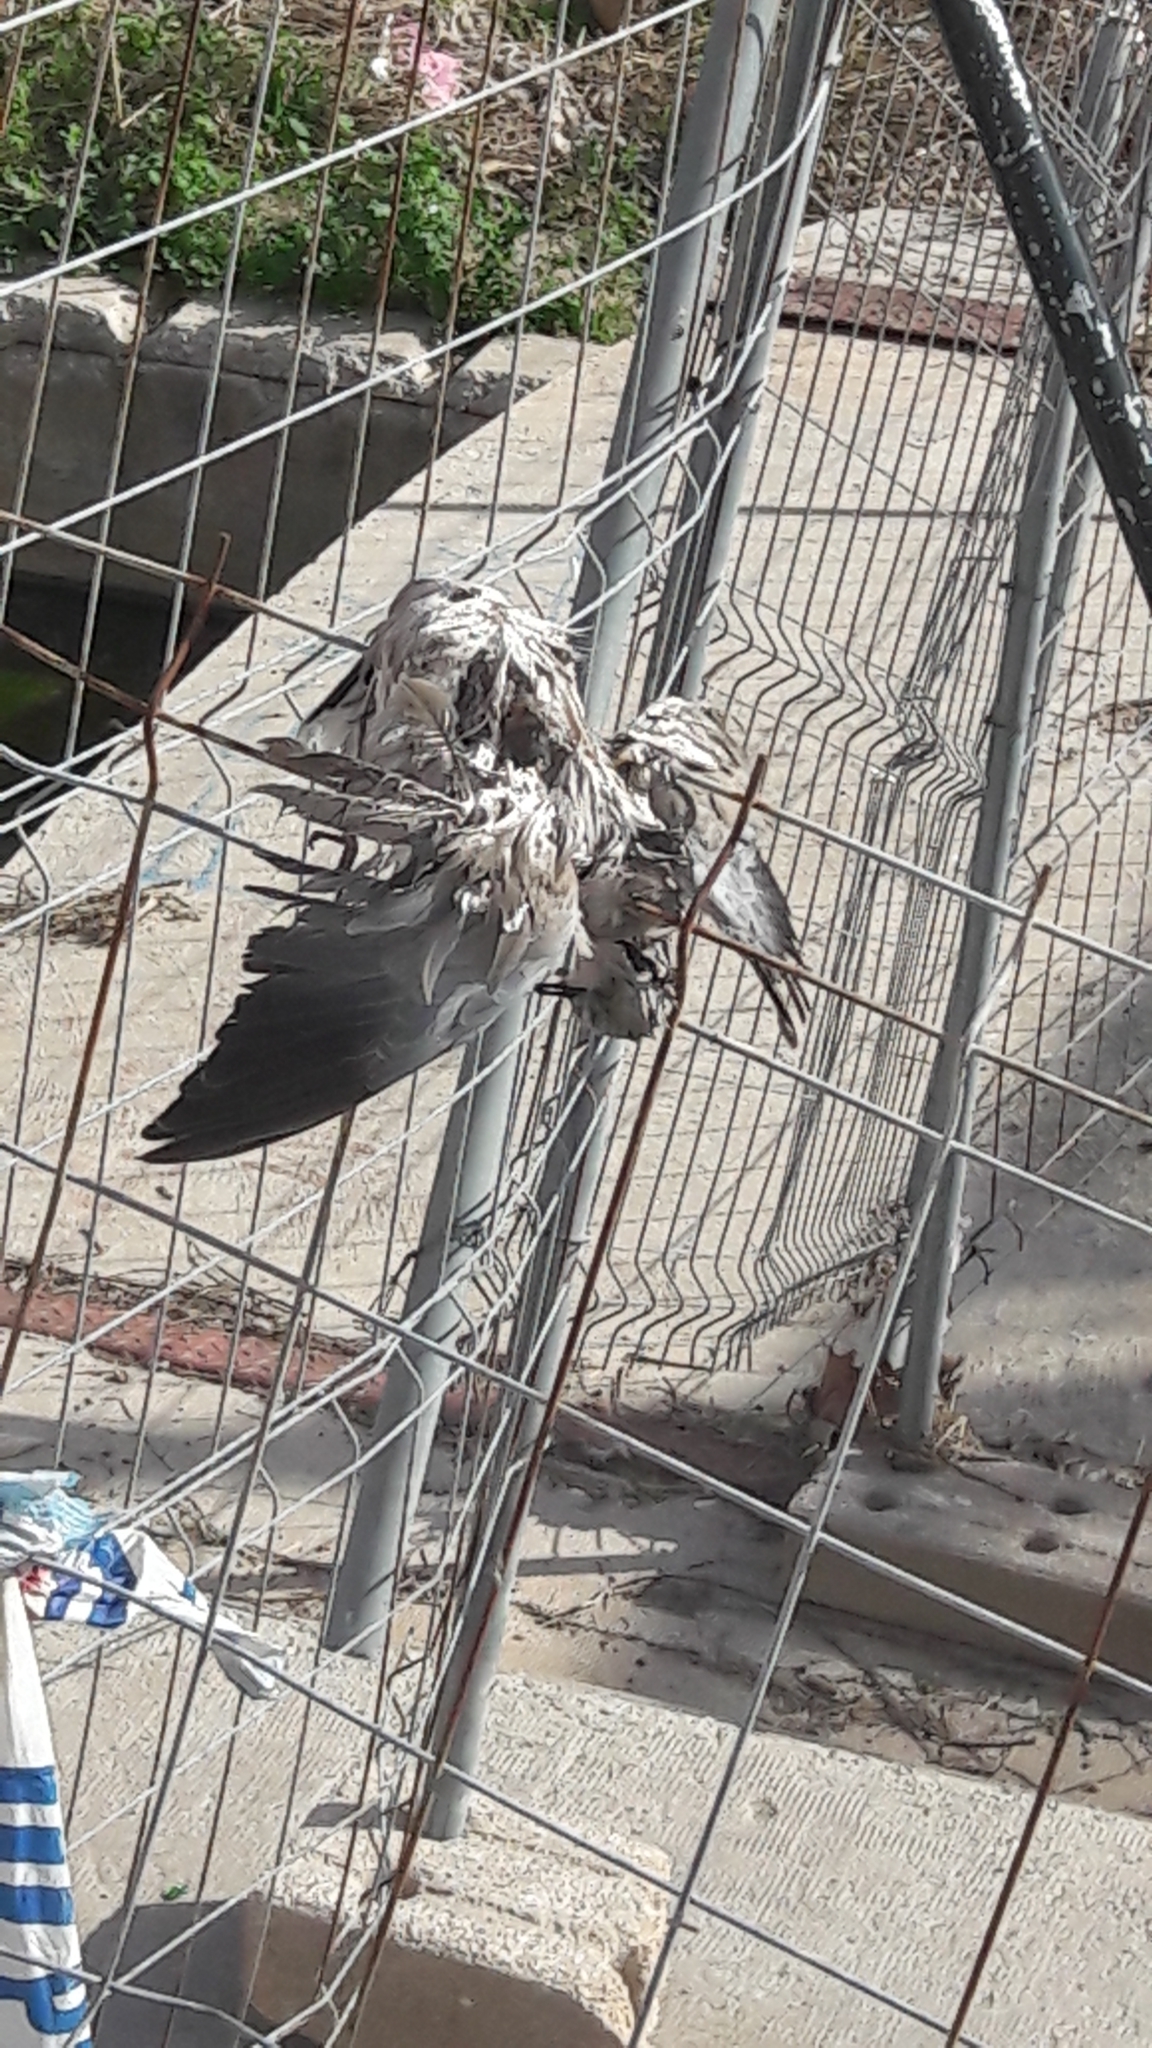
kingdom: Animalia
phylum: Chordata
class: Aves
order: Columbiformes
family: Columbidae
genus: Streptopelia
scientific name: Streptopelia decaocto
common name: Eurasian collared dove
